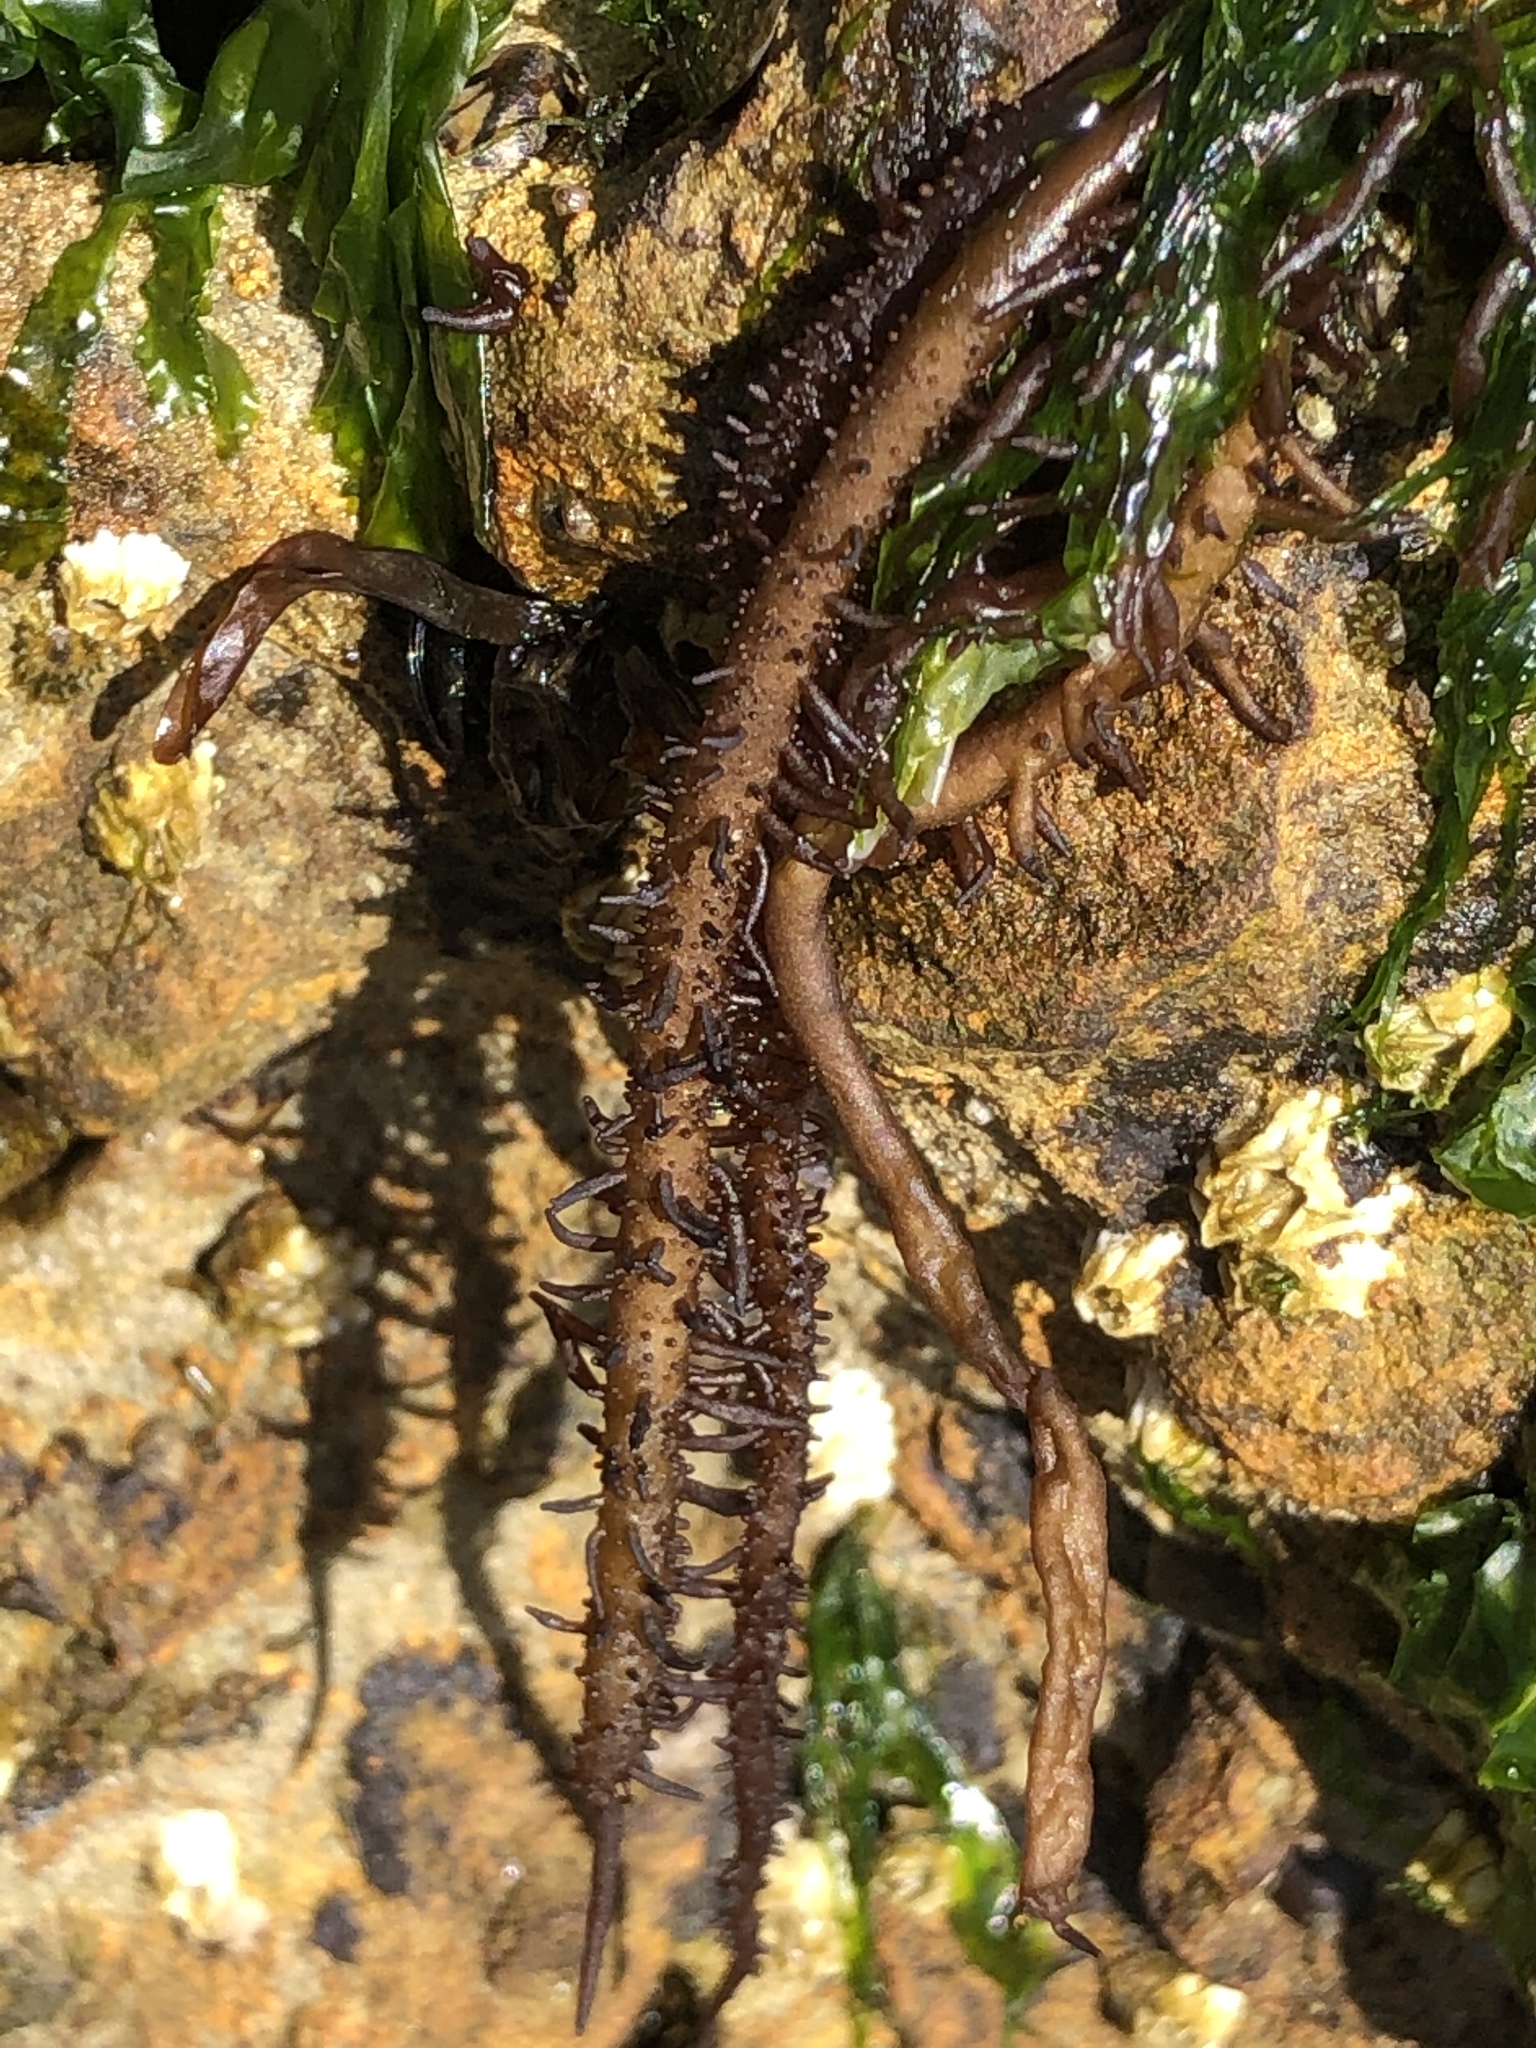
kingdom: Plantae
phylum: Rhodophyta
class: Florideophyceae
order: Nemaliales
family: Liagoraceae
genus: Cumagloia
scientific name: Cumagloia andersonii
